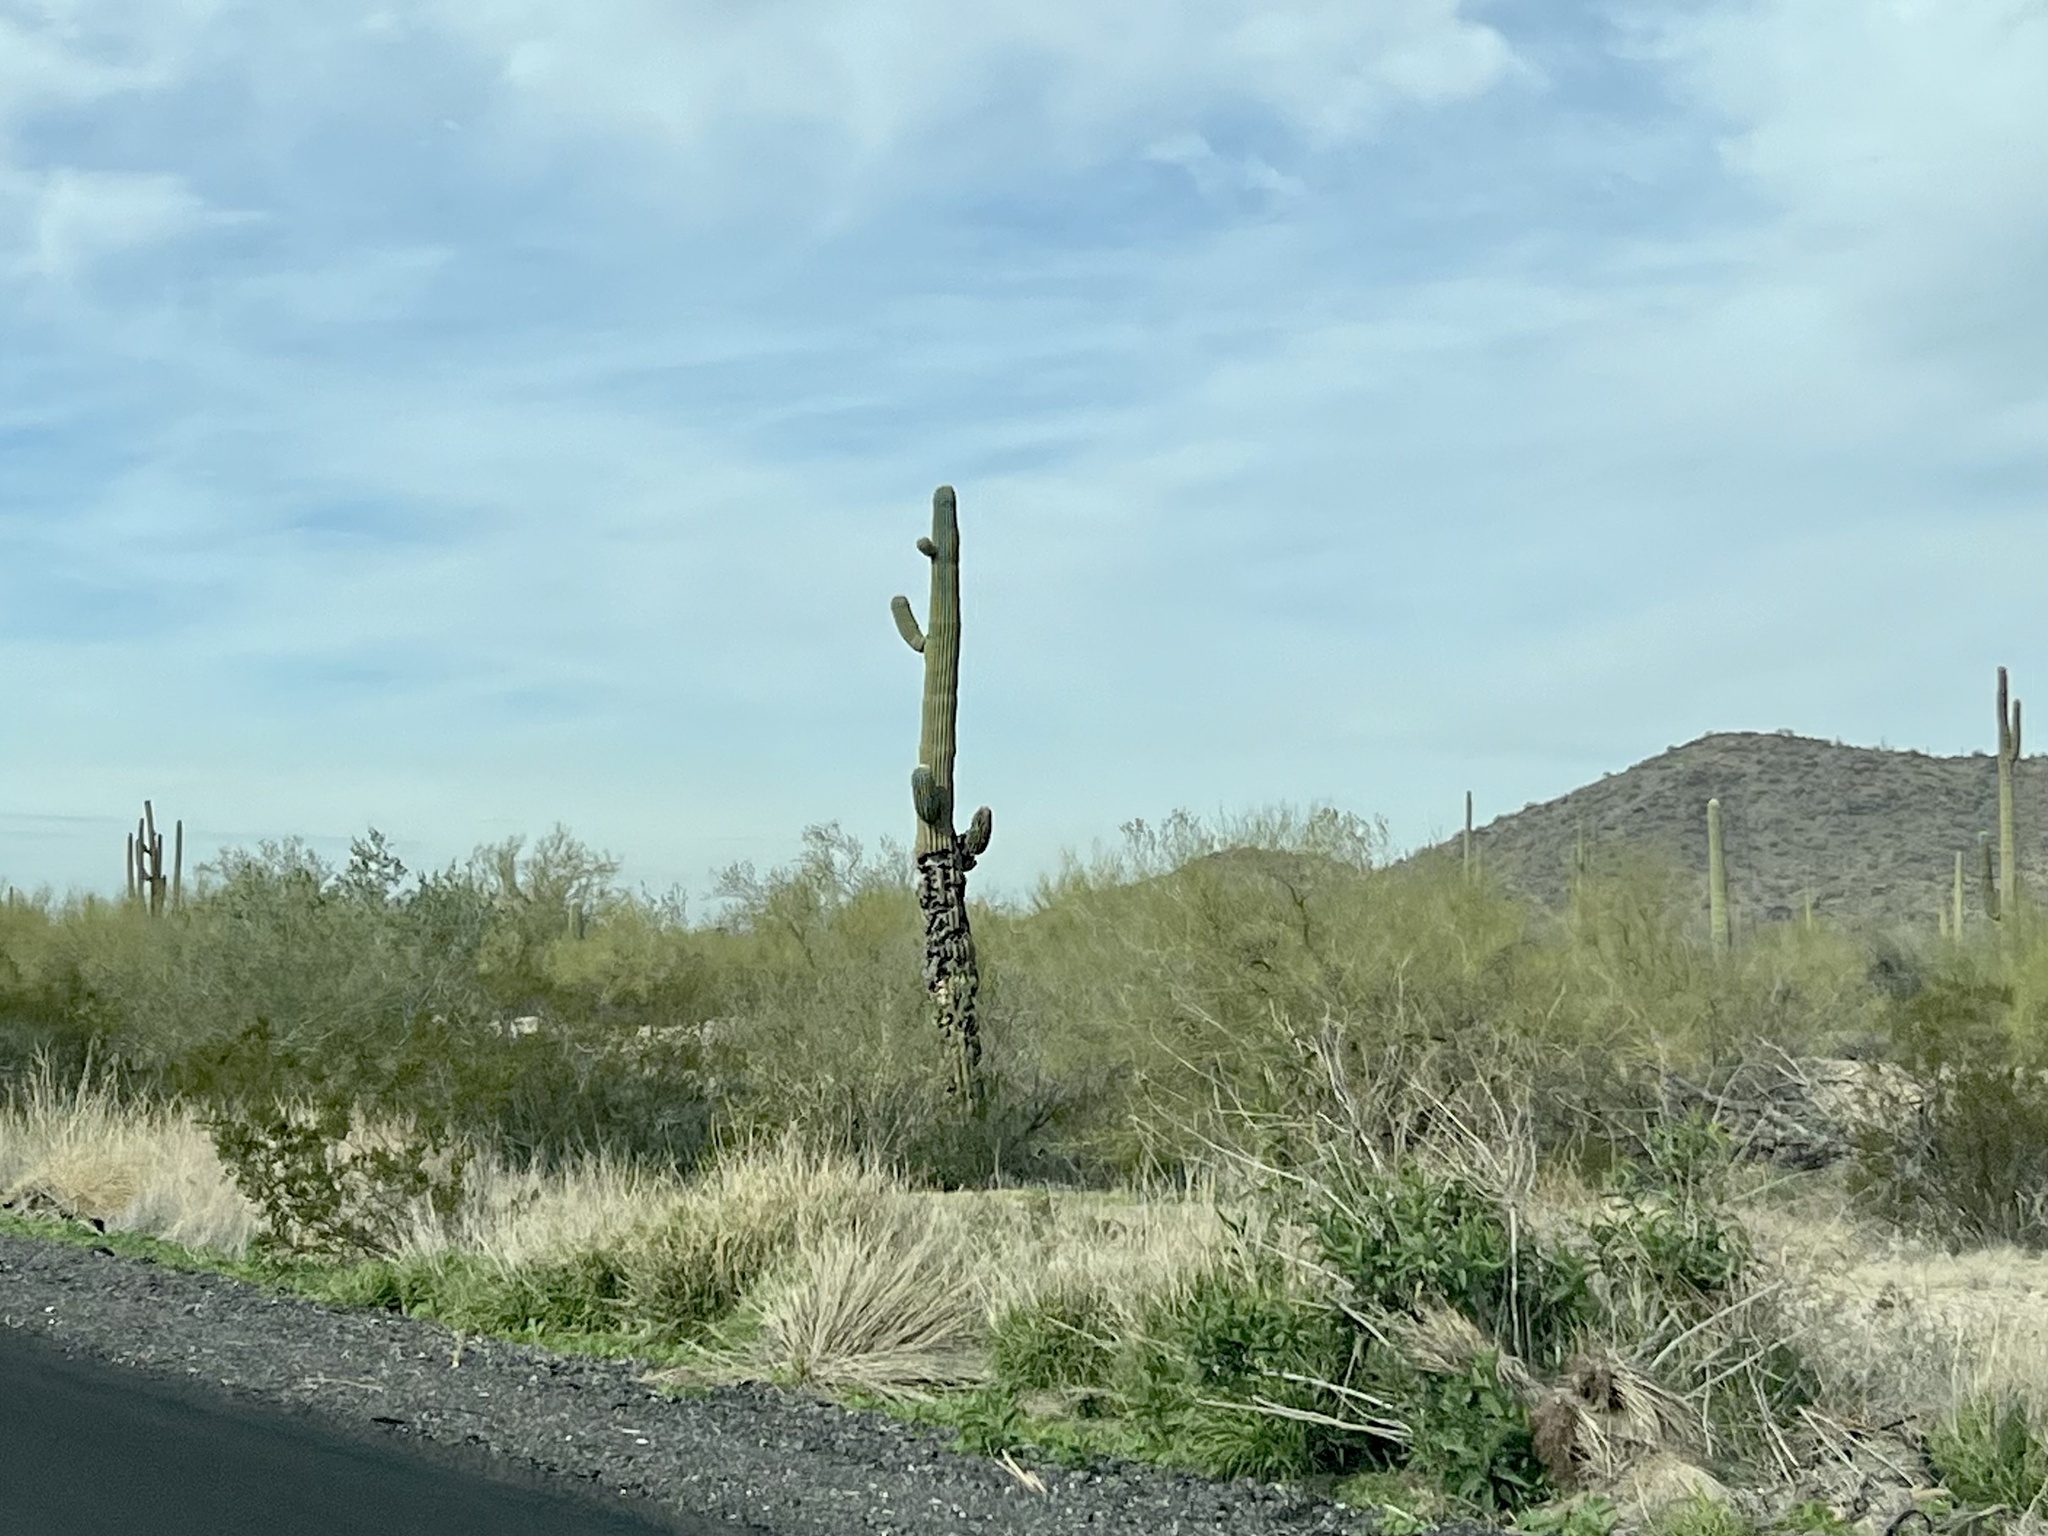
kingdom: Plantae
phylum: Tracheophyta
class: Magnoliopsida
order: Caryophyllales
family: Cactaceae
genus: Carnegiea
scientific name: Carnegiea gigantea
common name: Saguaro
